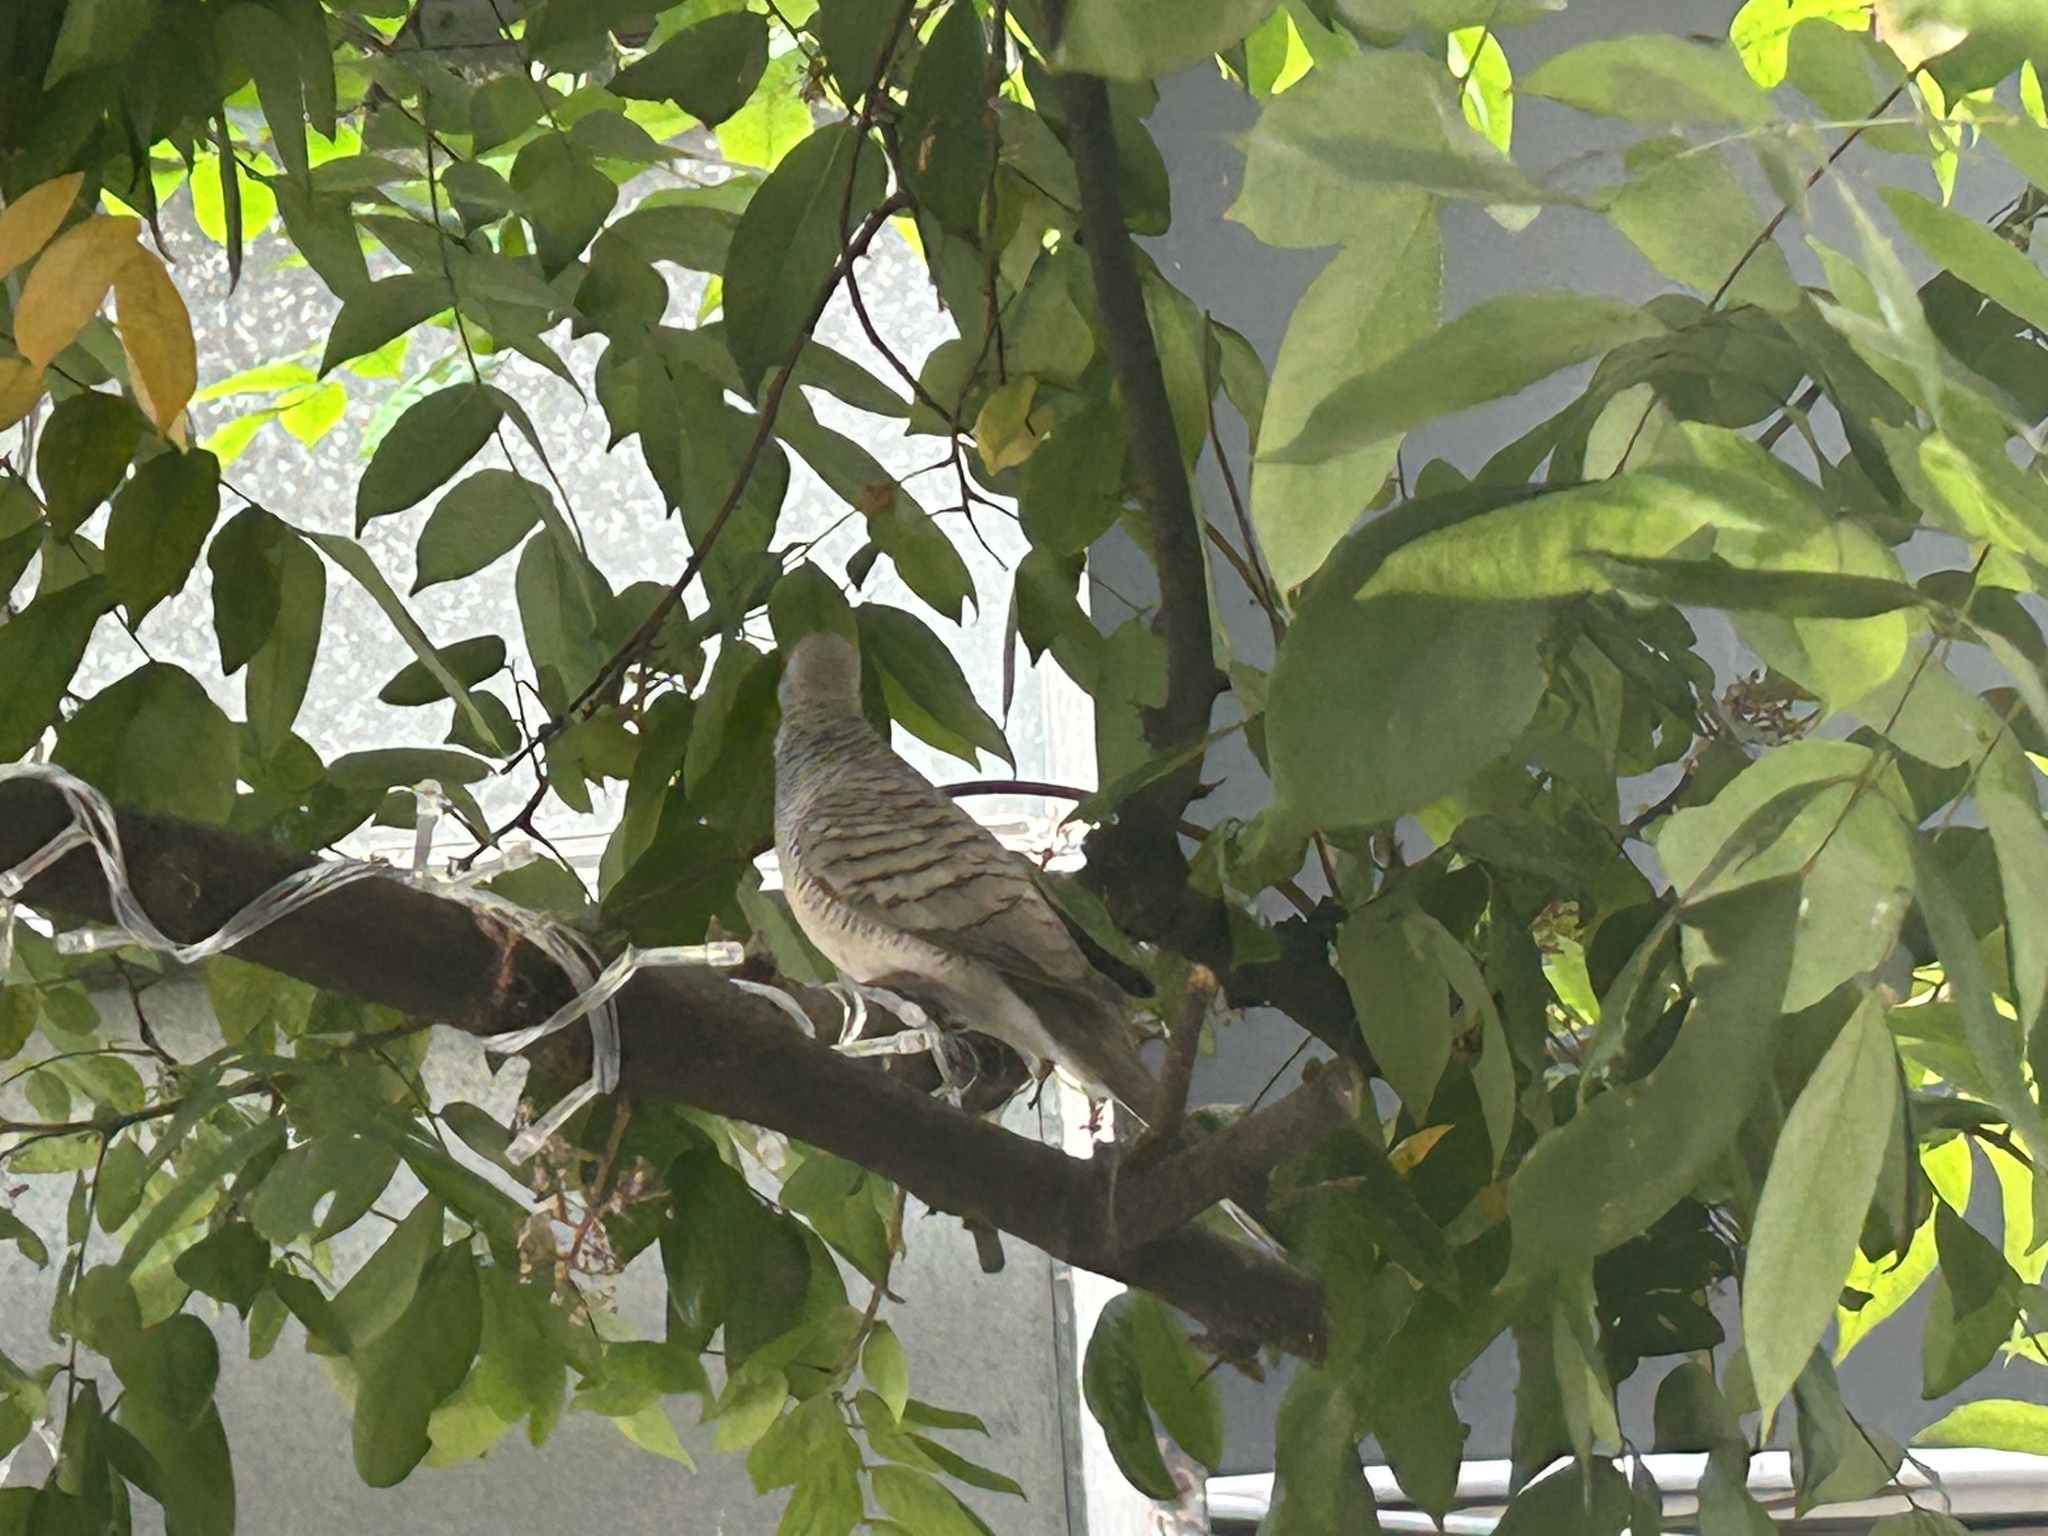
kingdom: Animalia
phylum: Chordata
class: Aves
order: Columbiformes
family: Columbidae
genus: Geopelia
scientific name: Geopelia striata
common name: Zebra dove
